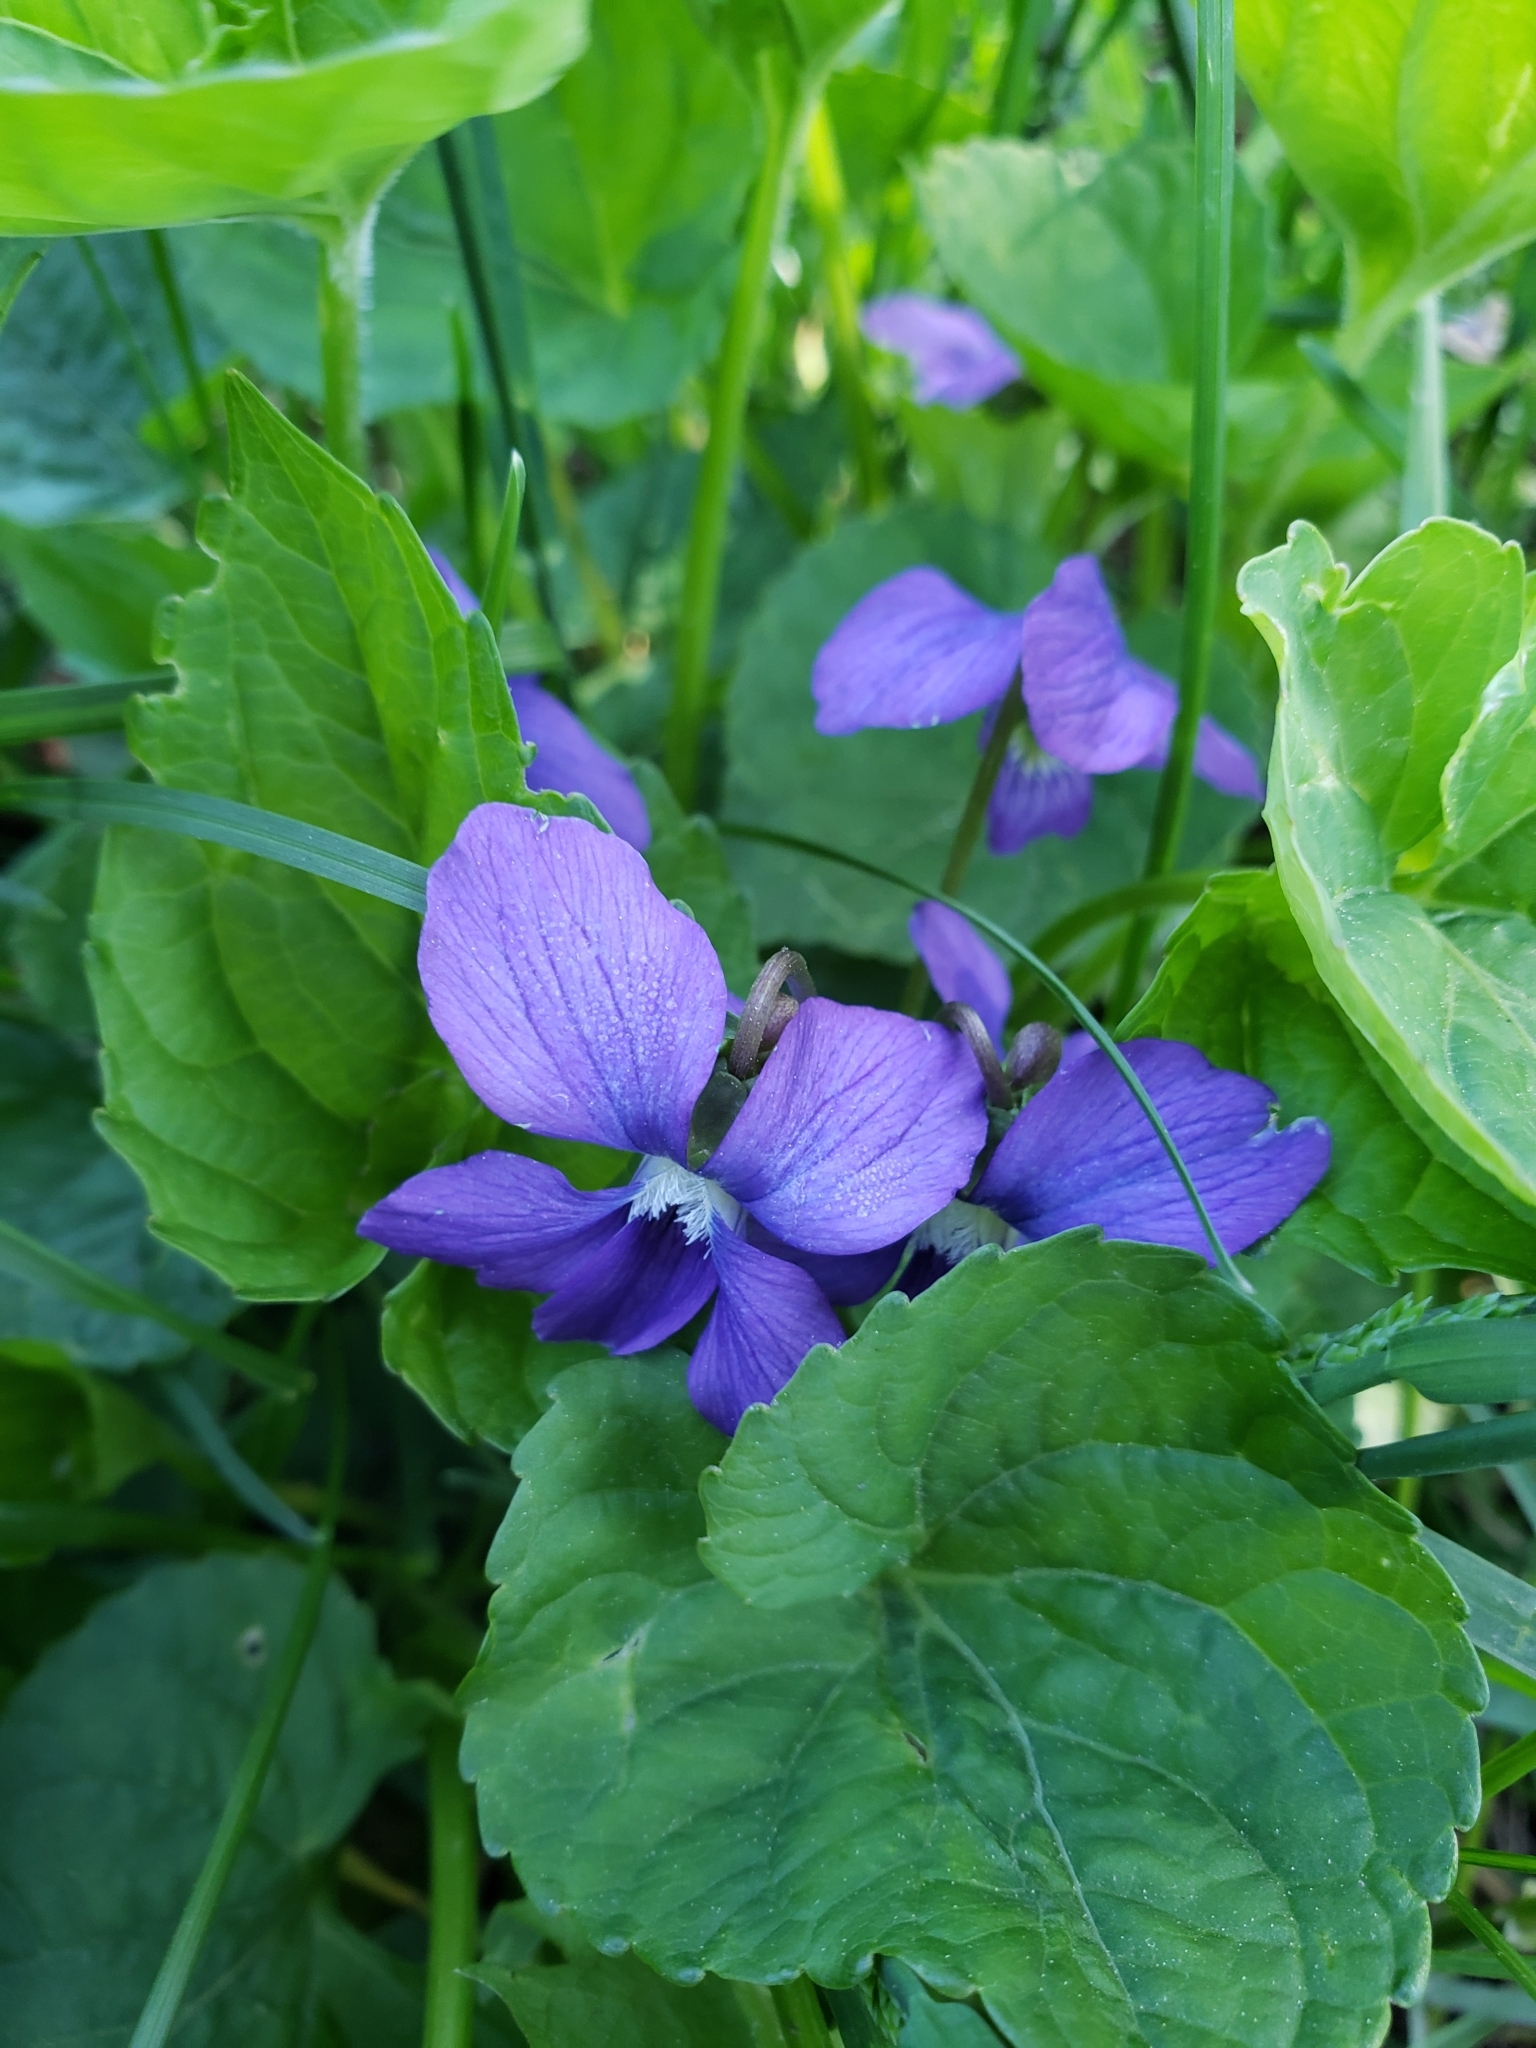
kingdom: Plantae
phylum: Tracheophyta
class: Magnoliopsida
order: Malpighiales
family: Violaceae
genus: Viola
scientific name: Viola sororia
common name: Dooryard violet
